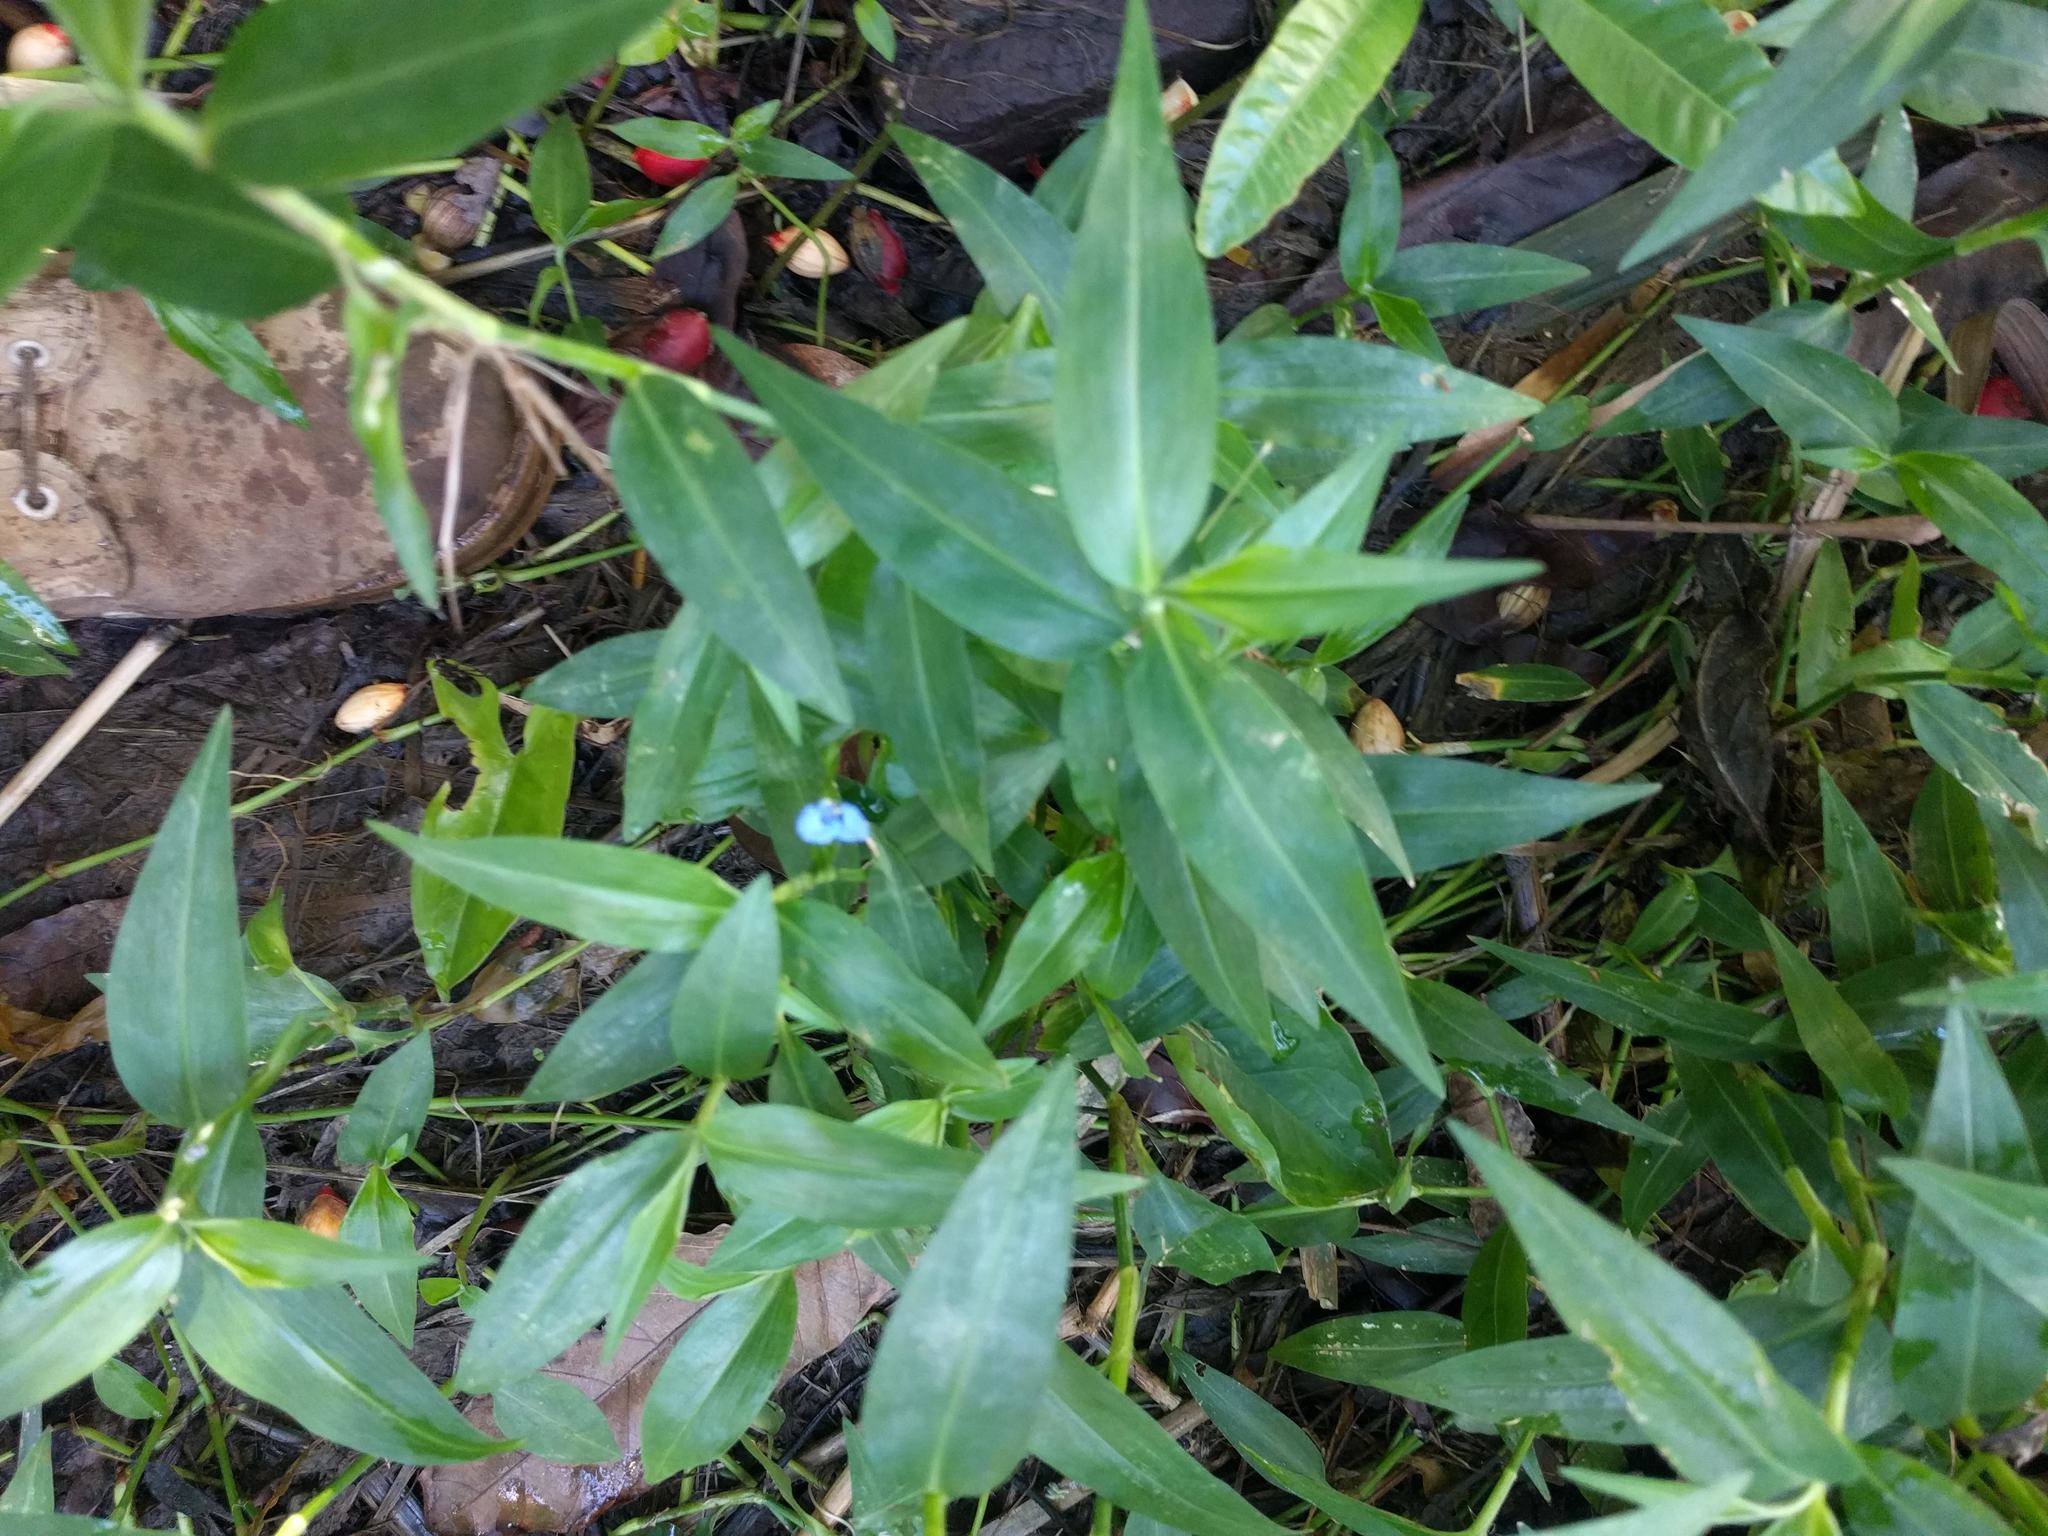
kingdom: Plantae
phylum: Tracheophyta
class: Liliopsida
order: Commelinales
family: Commelinaceae
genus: Commelina
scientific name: Commelina diffusa
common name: Climbing dayflower
